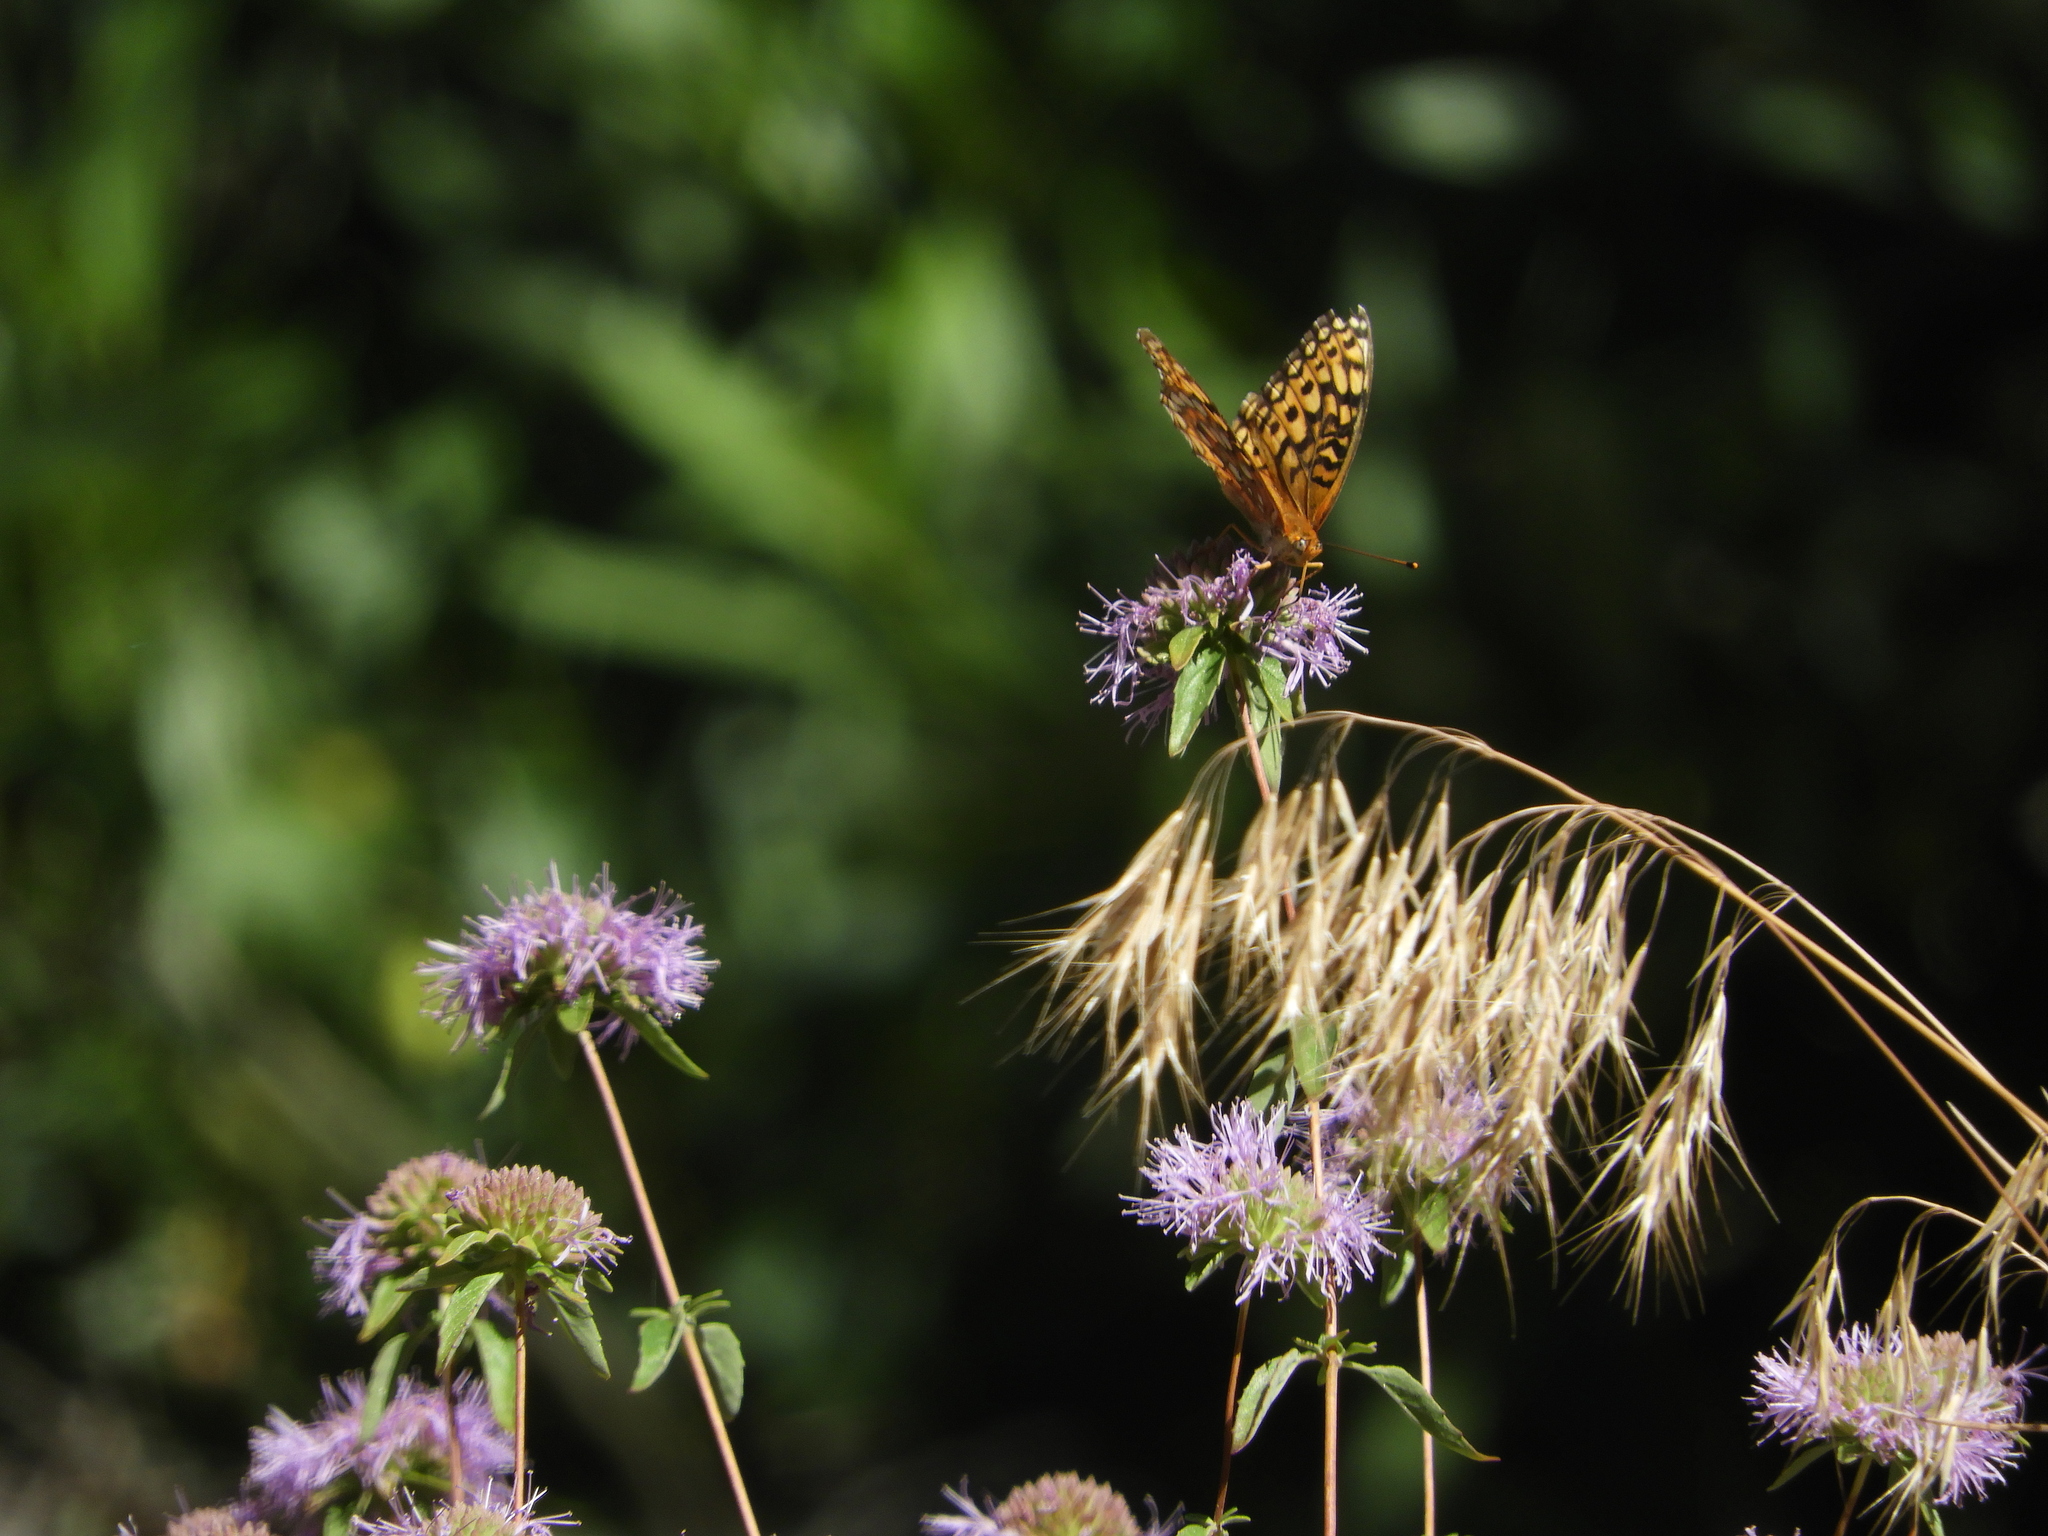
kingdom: Animalia
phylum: Arthropoda
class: Insecta
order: Lepidoptera
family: Nymphalidae
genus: Speyeria
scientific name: Speyeria callippe
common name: Callippe fritillary
